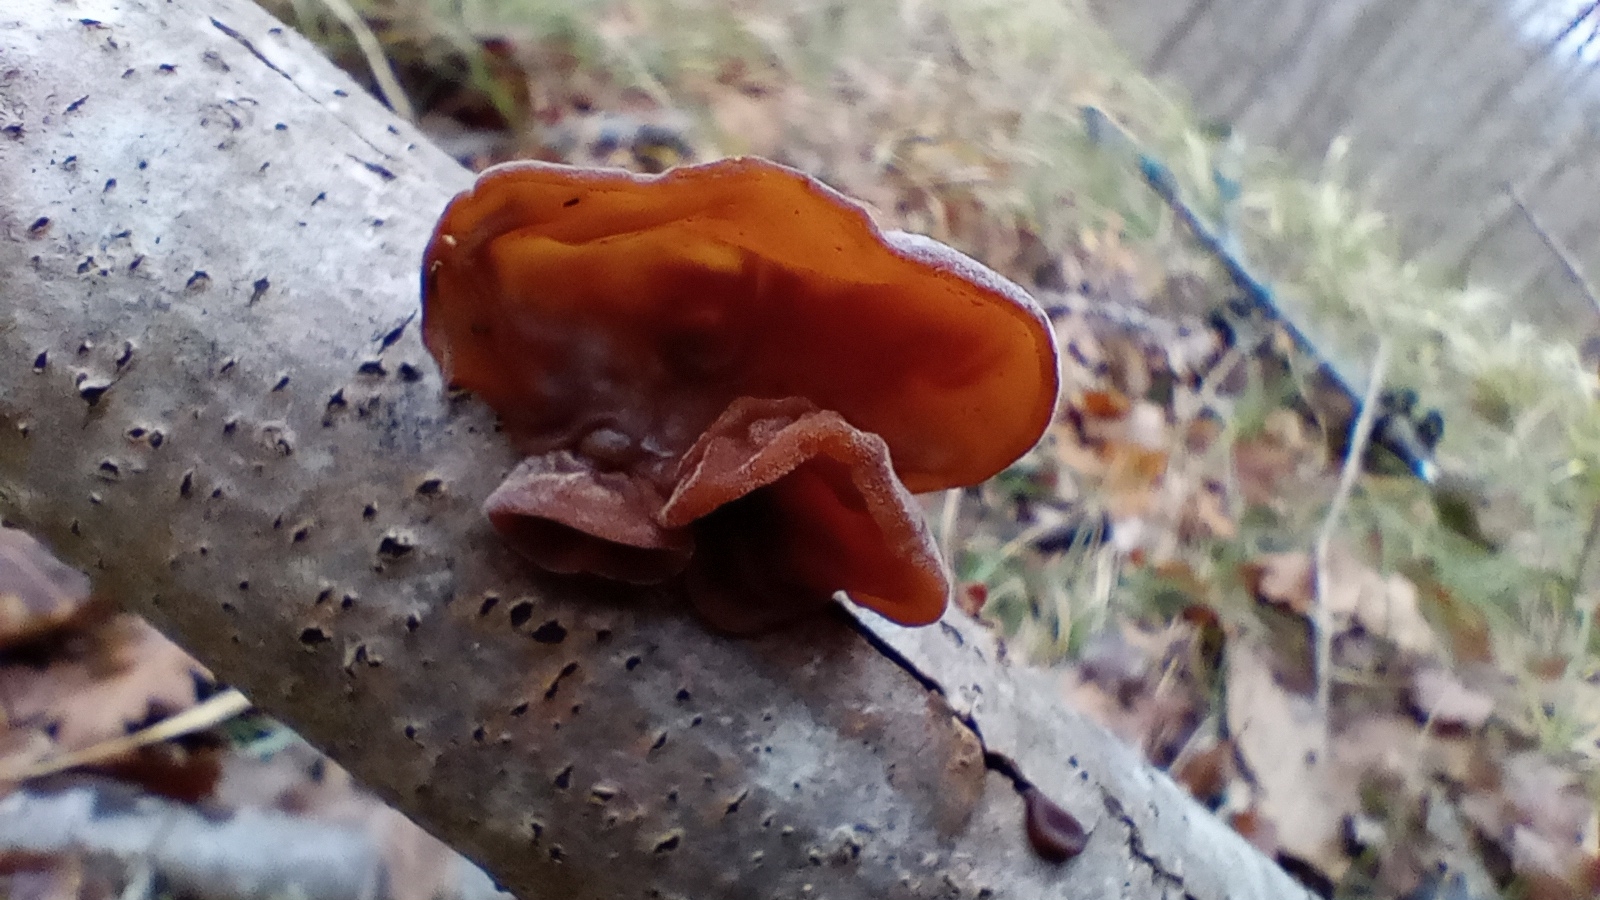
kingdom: Fungi
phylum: Basidiomycota
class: Agaricomycetes
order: Auriculariales
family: Auriculariaceae
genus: Auricularia
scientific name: Auricularia auricula-judae
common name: Jelly ear
